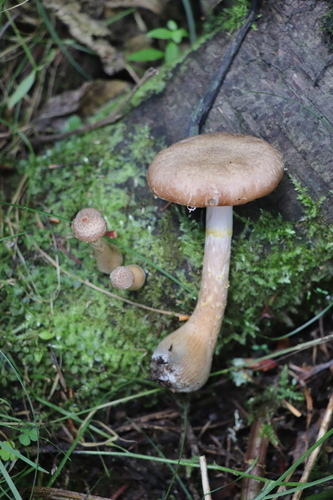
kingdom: Fungi
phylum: Basidiomycota
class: Agaricomycetes
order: Agaricales
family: Physalacriaceae
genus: Armillaria
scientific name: Armillaria cepistipes
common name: Mullet honey fungus
